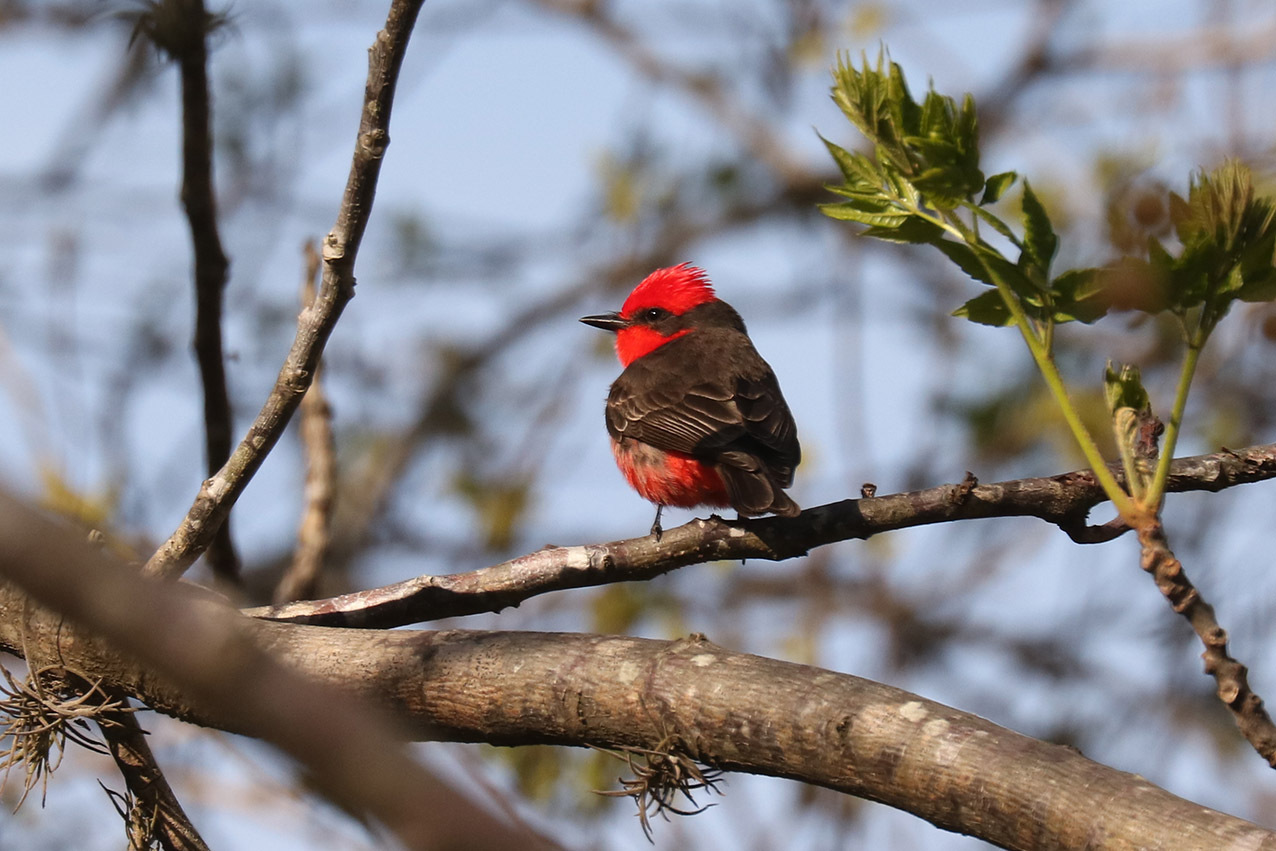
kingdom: Animalia
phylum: Chordata
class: Aves
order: Passeriformes
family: Tyrannidae
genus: Pyrocephalus
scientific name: Pyrocephalus rubinus
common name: Vermilion flycatcher
